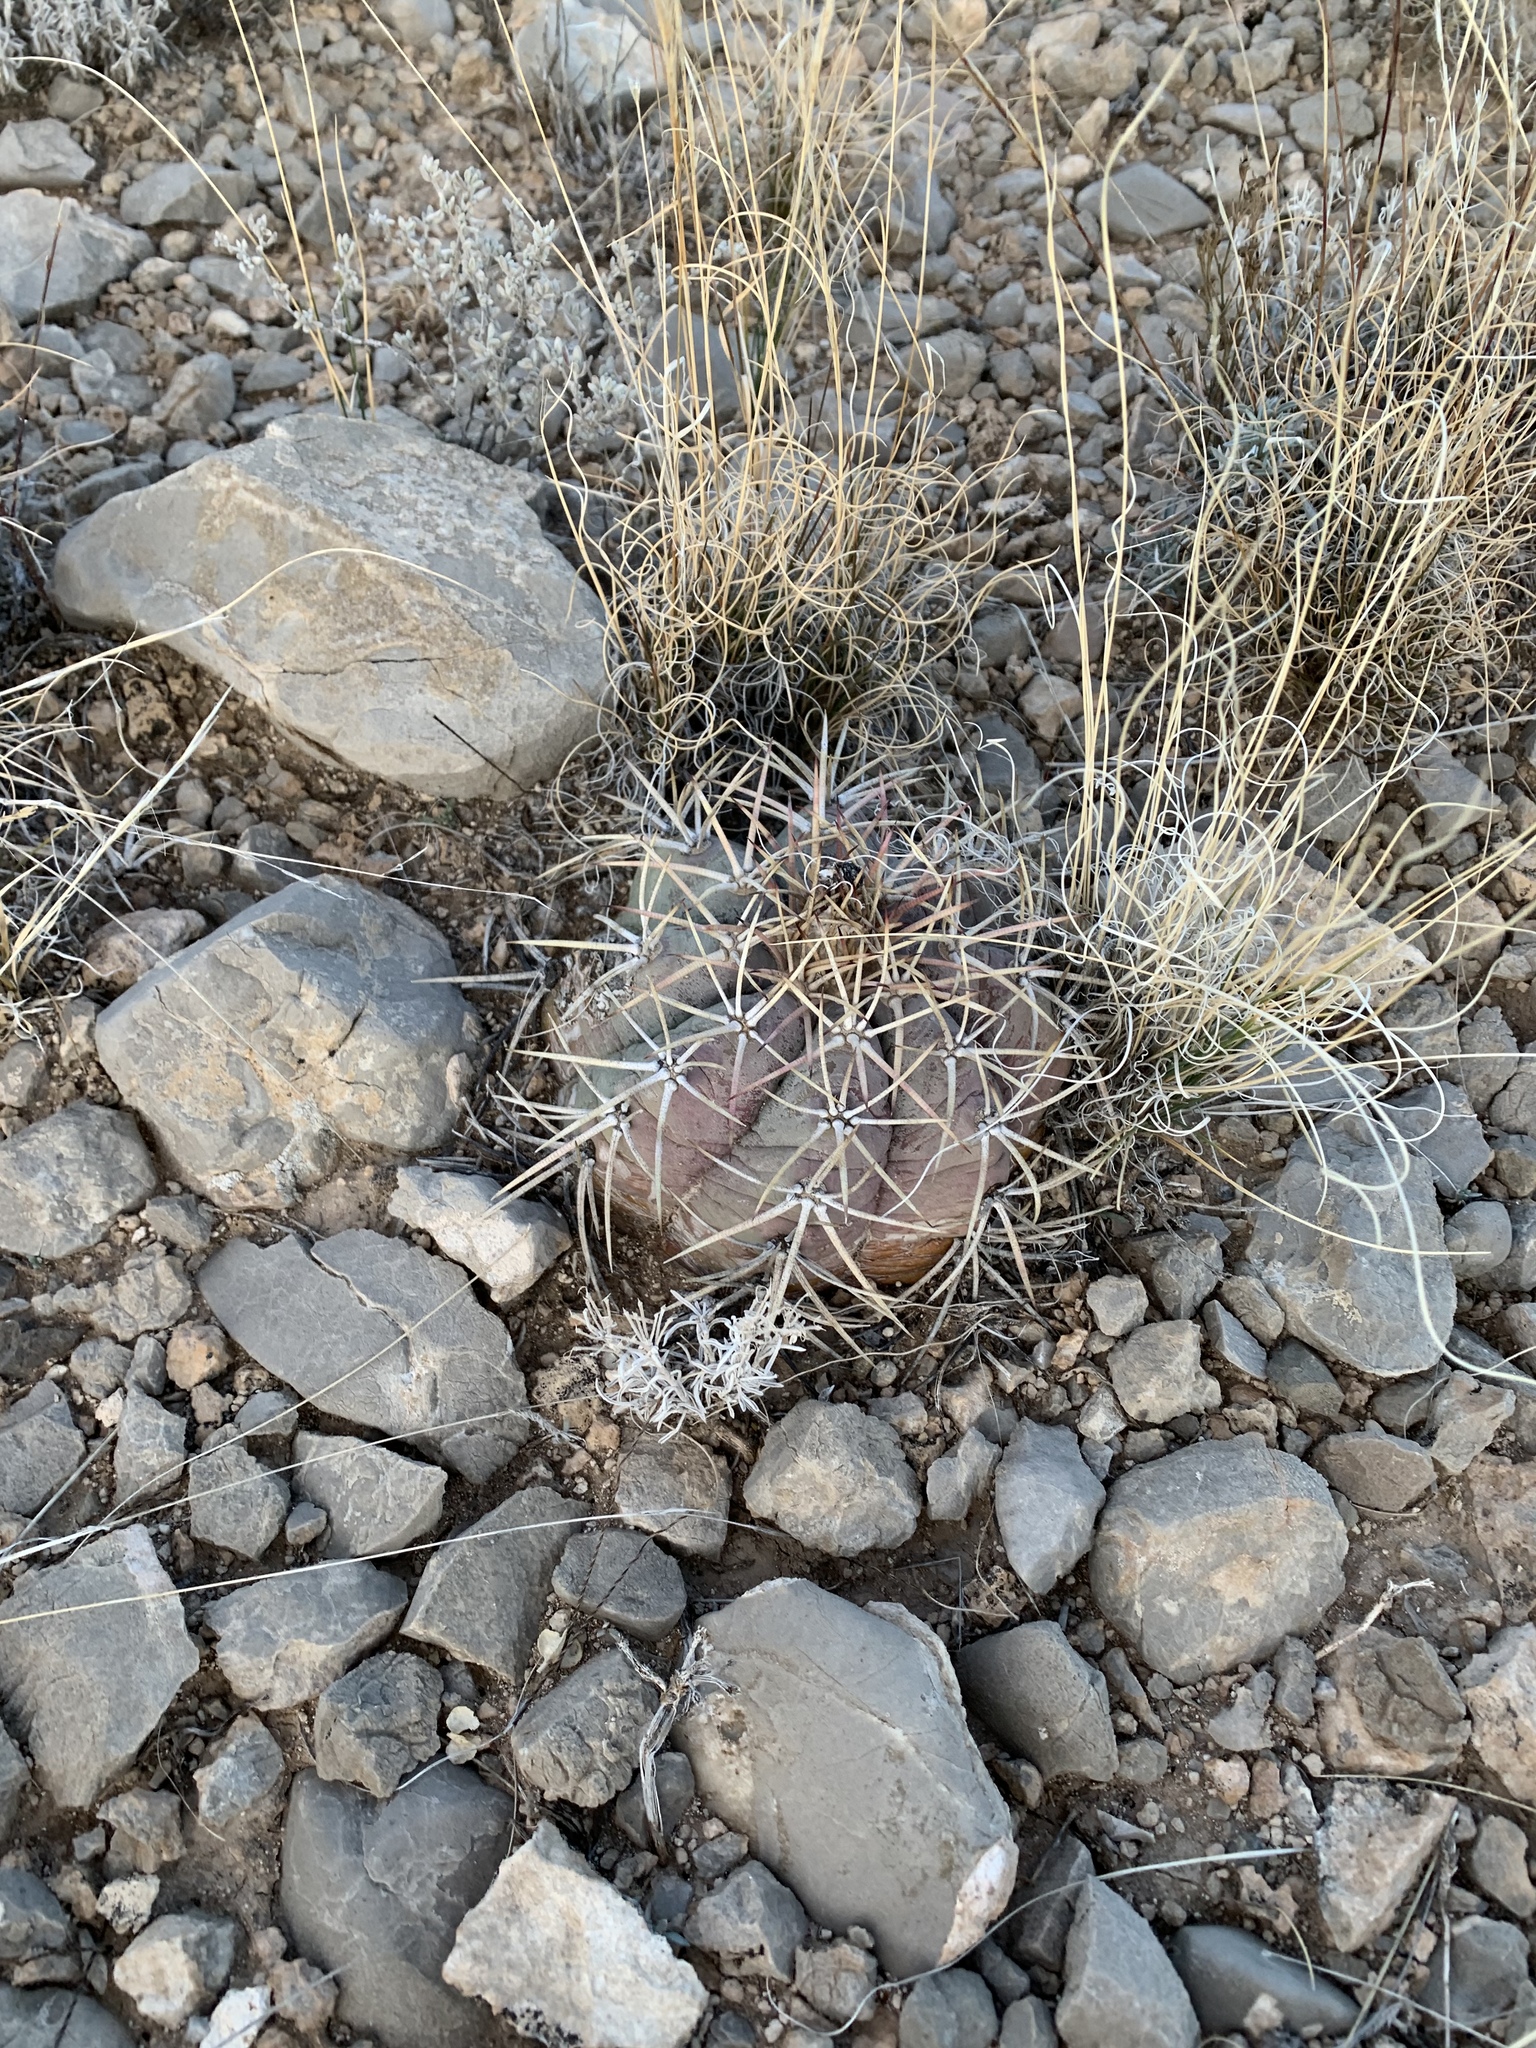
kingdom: Plantae
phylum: Tracheophyta
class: Magnoliopsida
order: Caryophyllales
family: Cactaceae
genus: Echinocactus
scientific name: Echinocactus horizonthalonius
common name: Devilshead
